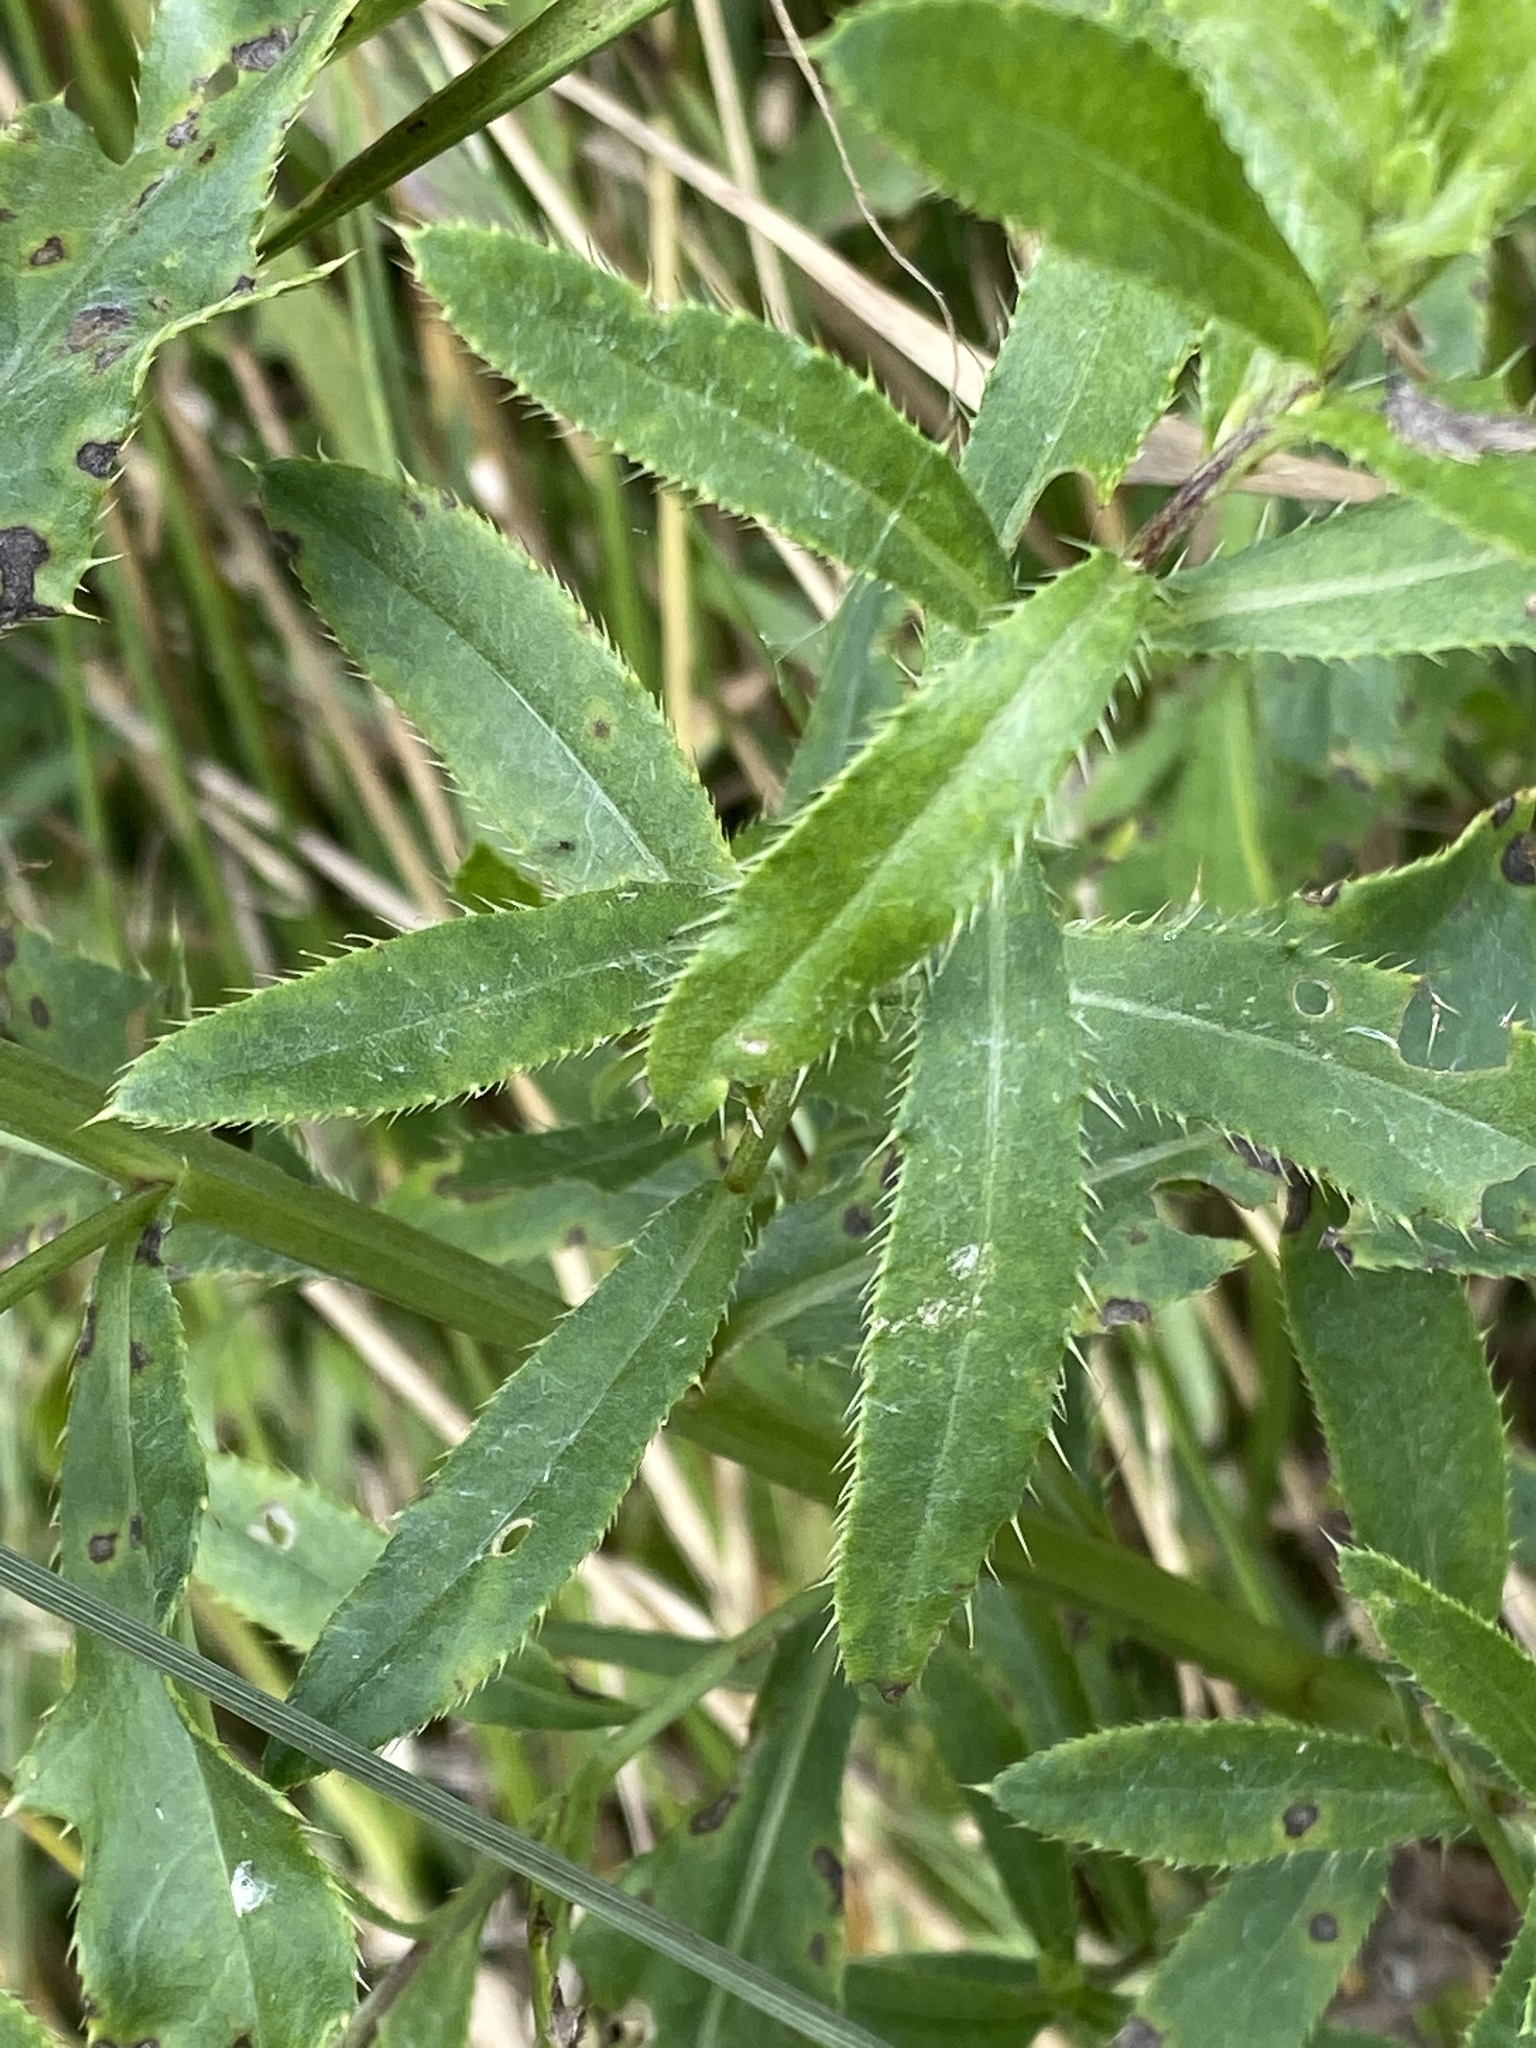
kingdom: Plantae
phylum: Tracheophyta
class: Magnoliopsida
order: Asterales
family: Asteraceae
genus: Cirsium
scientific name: Cirsium arvense
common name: Creeping thistle
